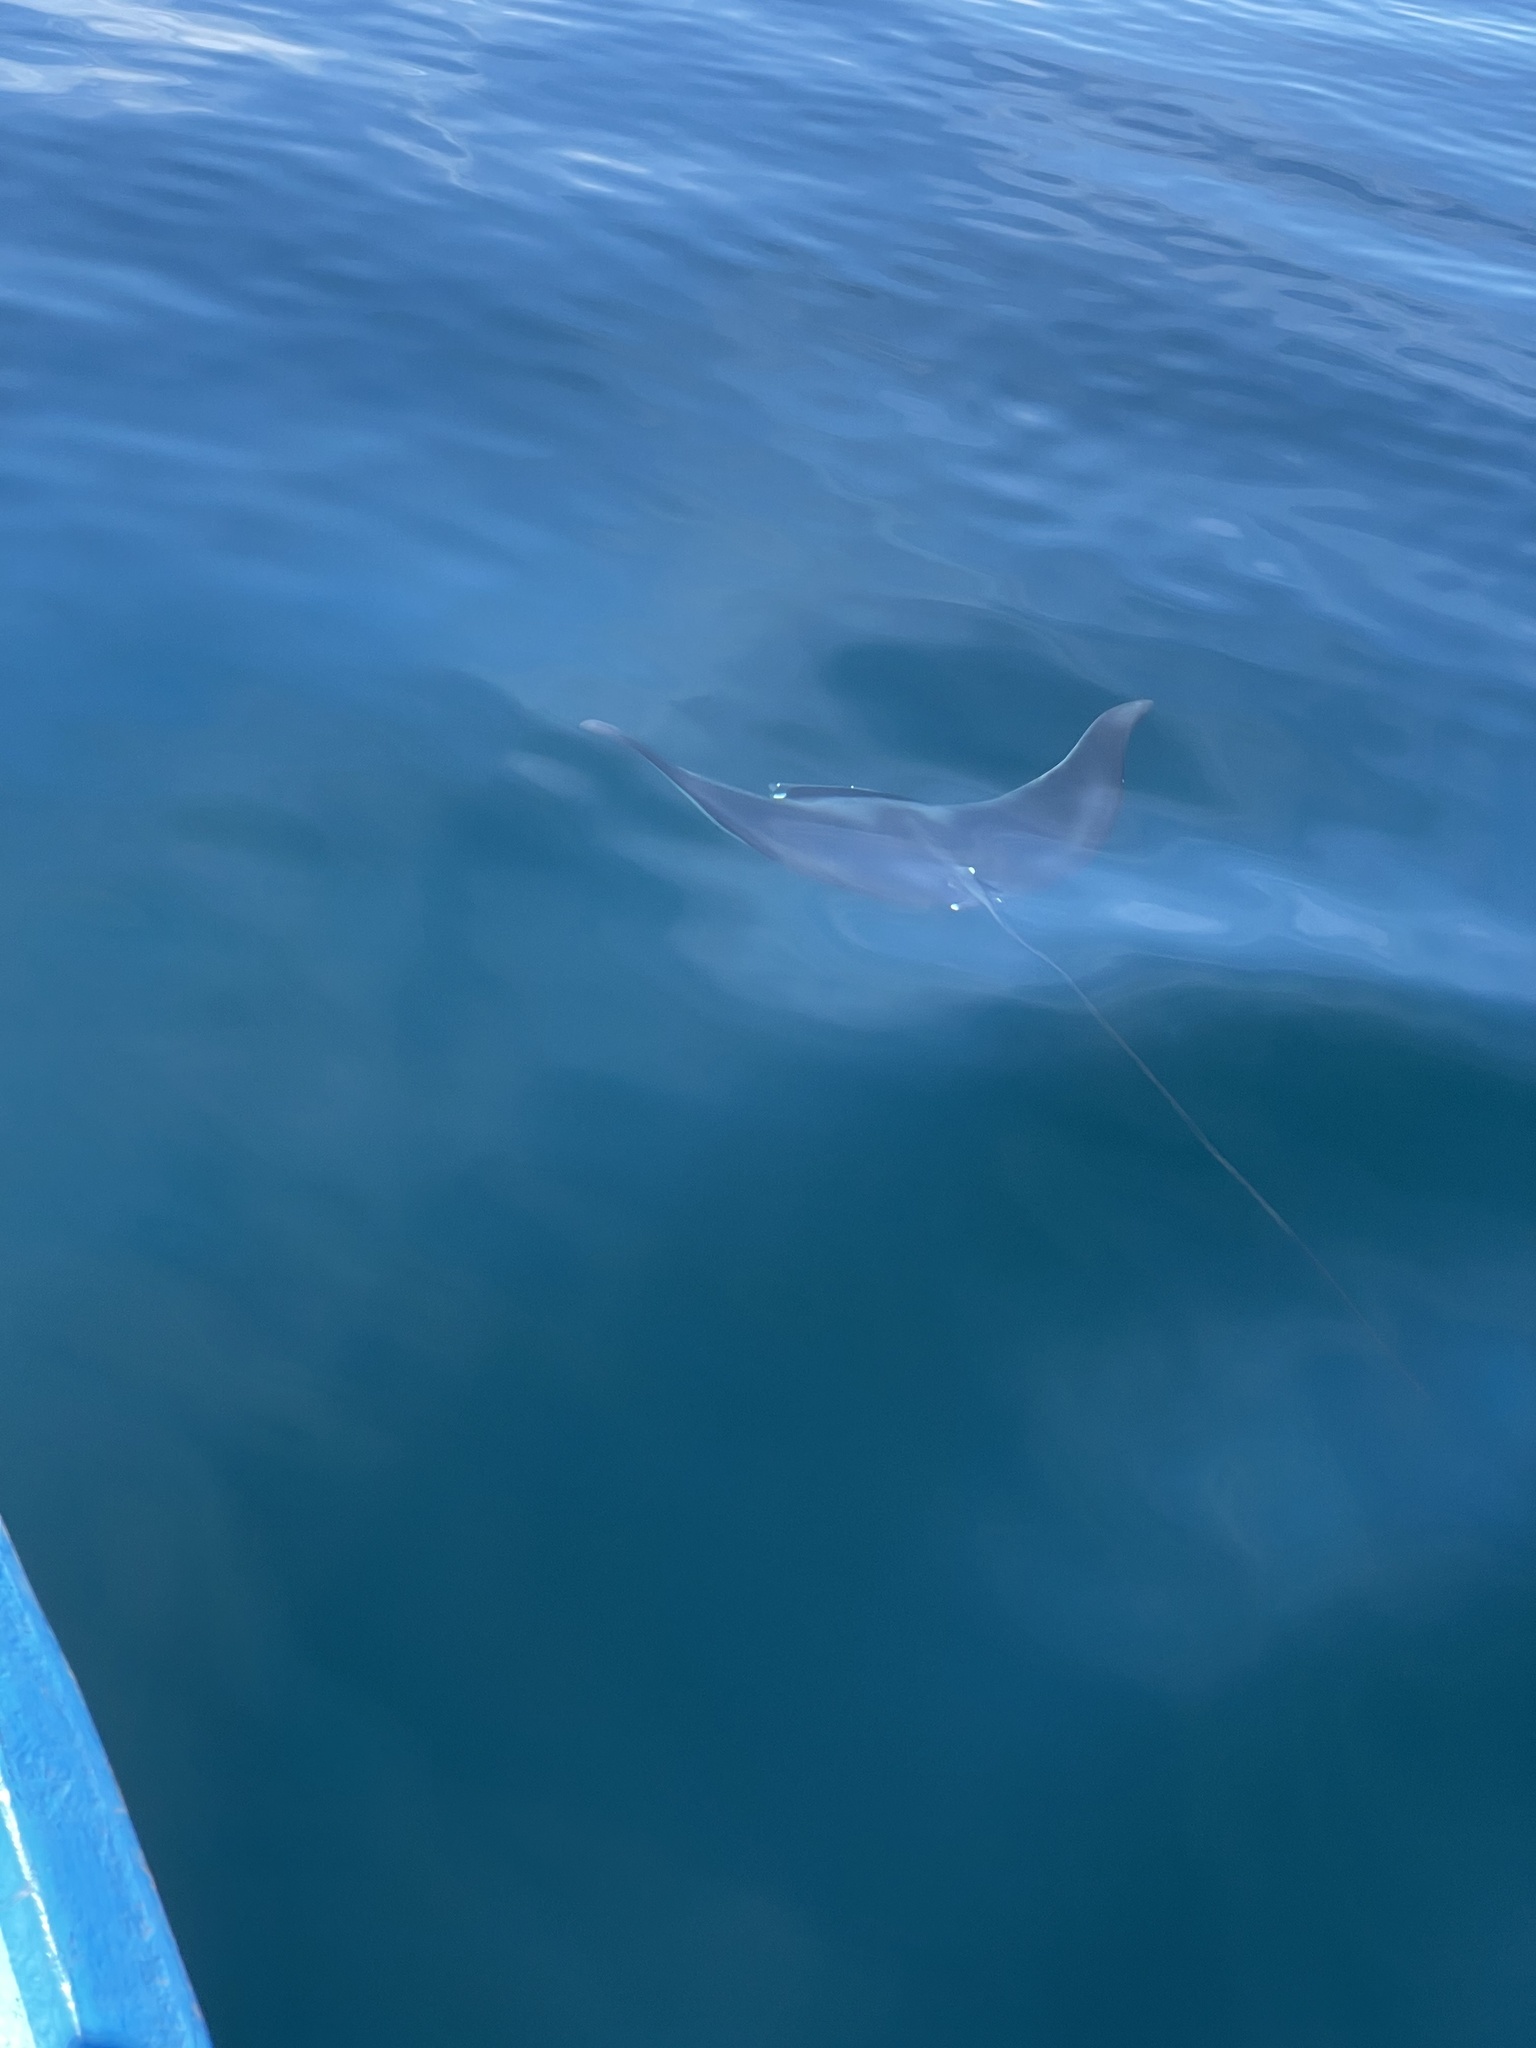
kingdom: Animalia
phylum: Chordata
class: Elasmobranchii
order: Myliobatiformes
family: Myliobatidae
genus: Mobula
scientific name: Mobula mobular
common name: Devil ray
